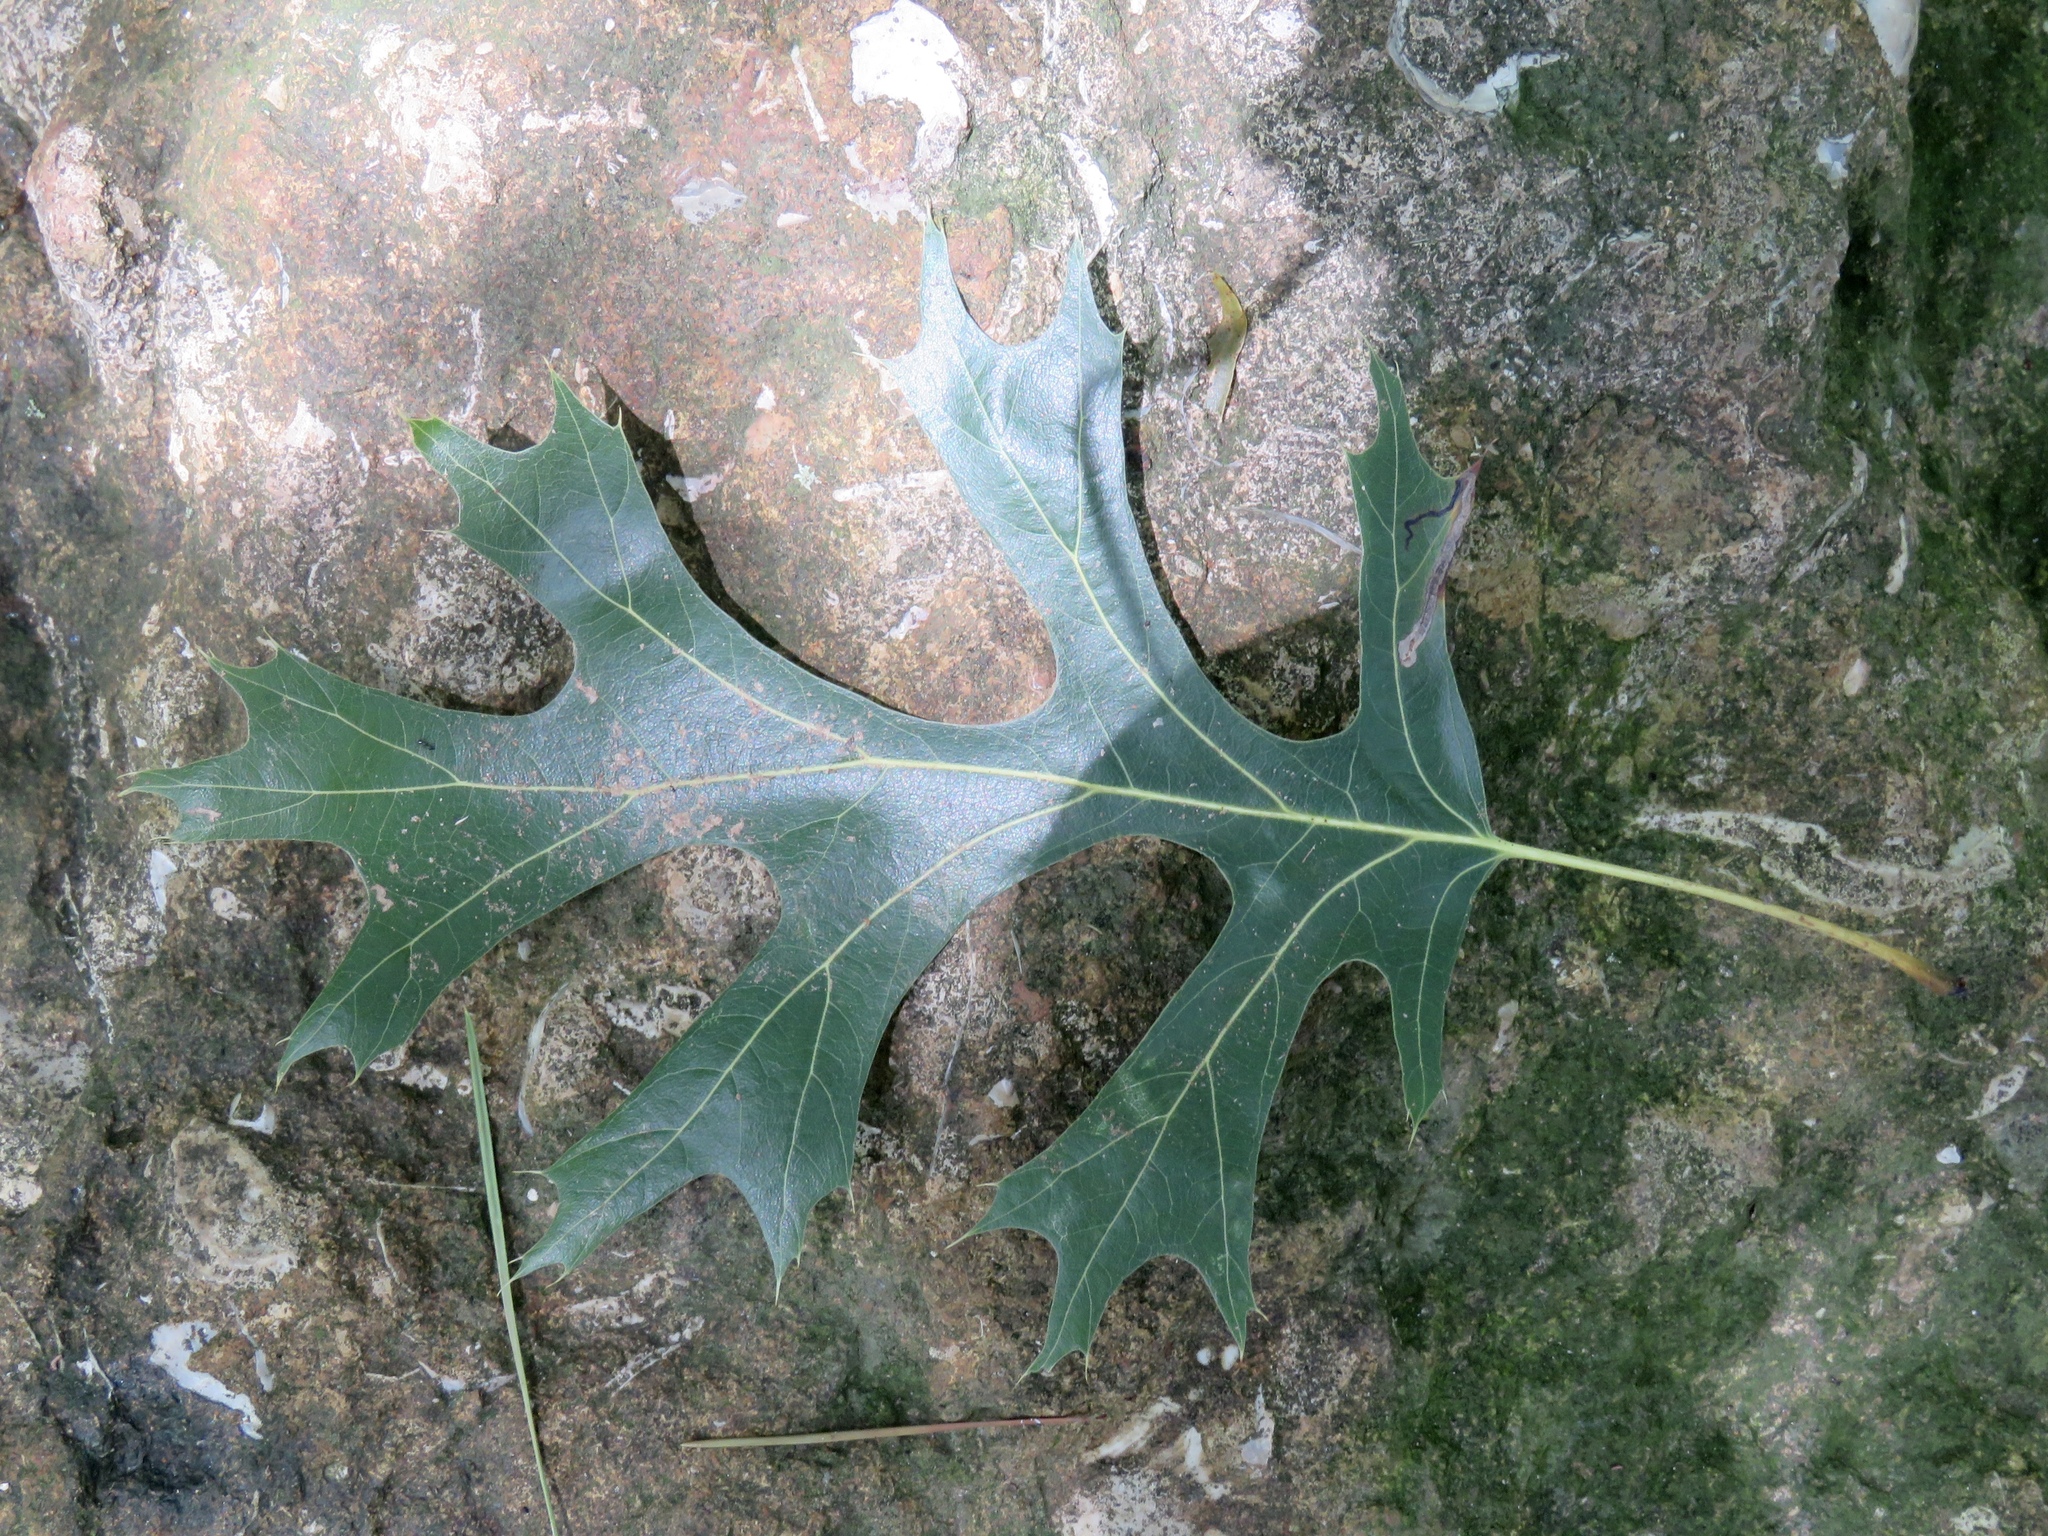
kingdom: Plantae
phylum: Tracheophyta
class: Magnoliopsida
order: Fagales
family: Fagaceae
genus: Quercus
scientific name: Quercus pagoda
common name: Cherrybark oak
